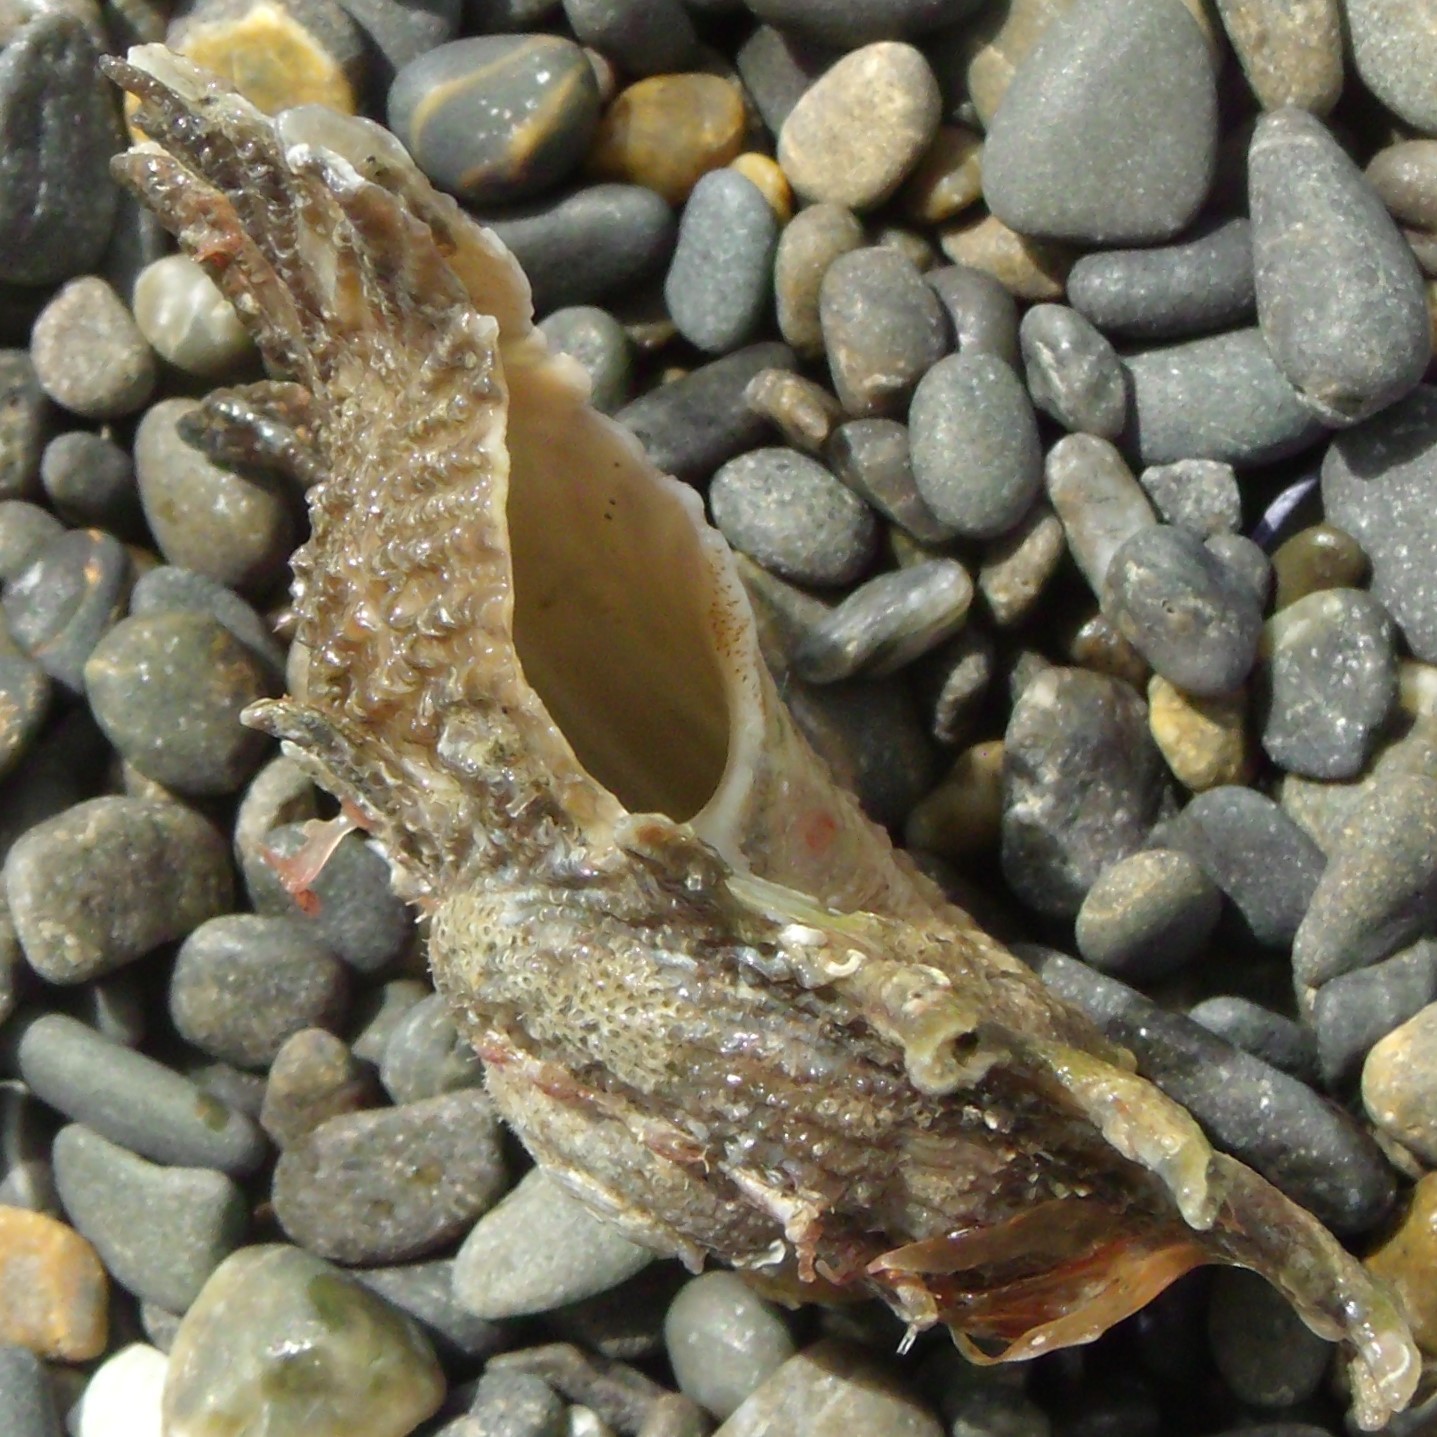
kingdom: Animalia
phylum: Mollusca
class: Gastropoda
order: Trochida
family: Turbinidae
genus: Astraea
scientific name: Astraea heliotropium
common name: Sun shell
